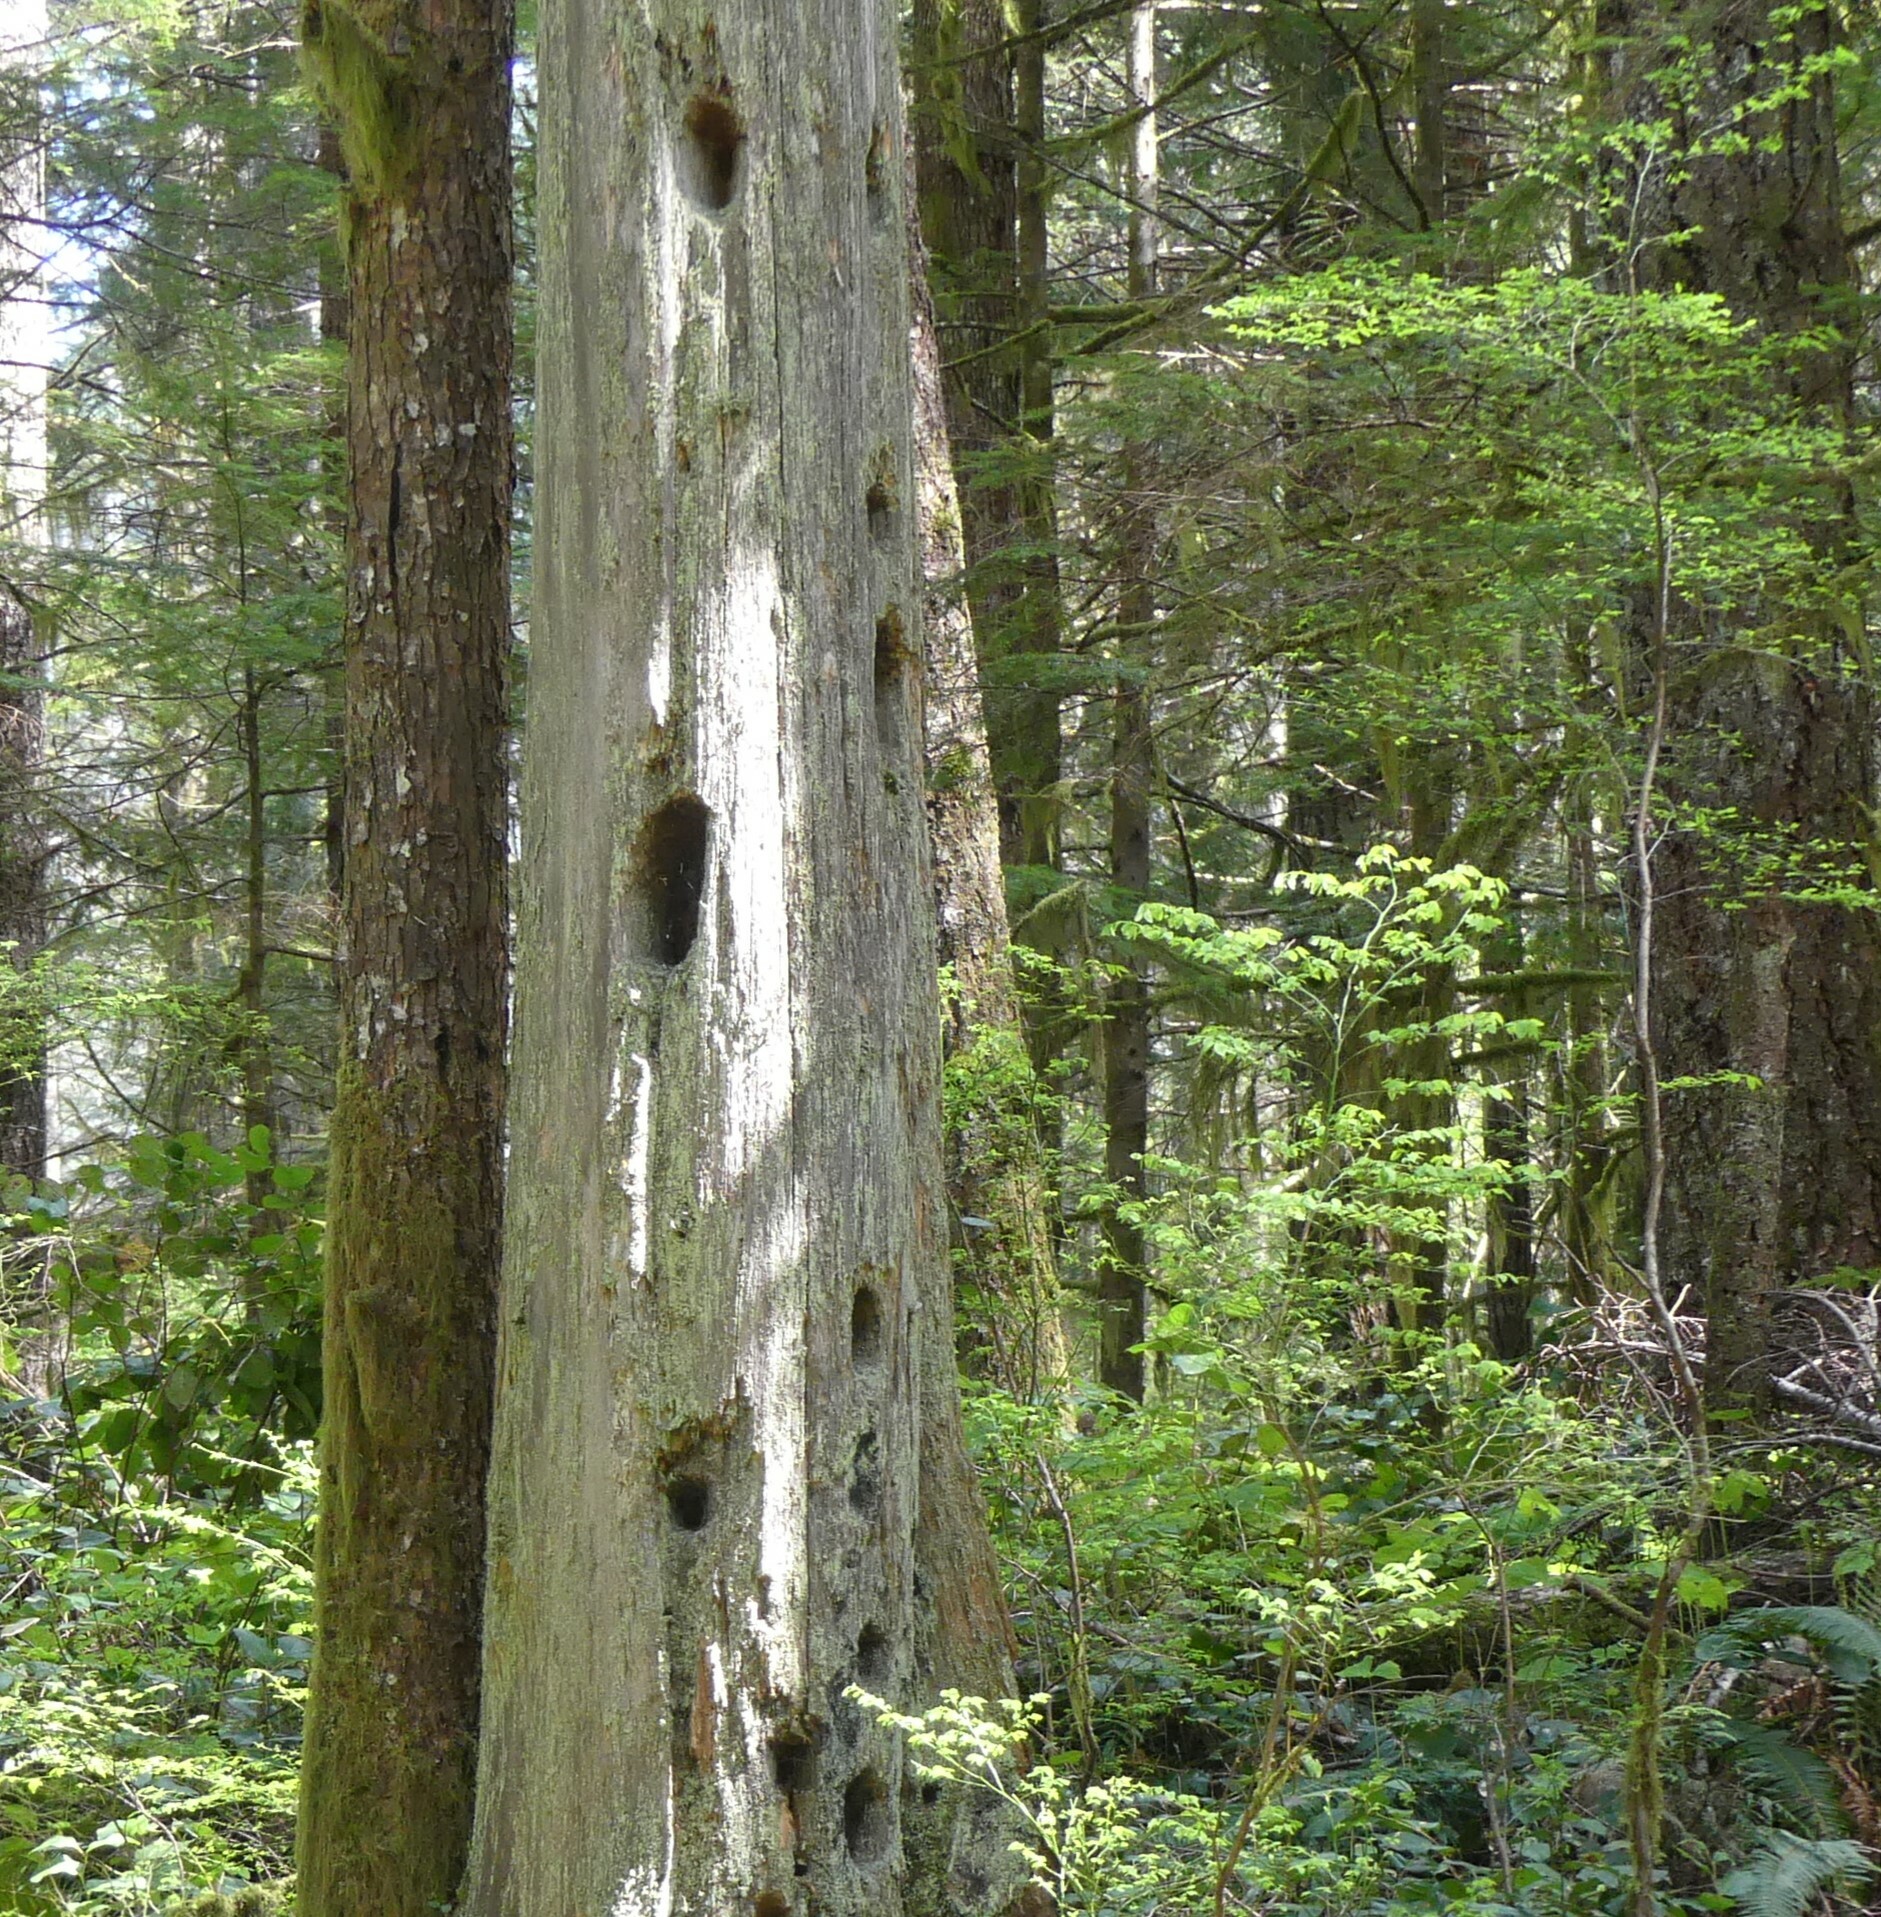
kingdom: Animalia
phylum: Chordata
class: Aves
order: Piciformes
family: Picidae
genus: Dryocopus
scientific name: Dryocopus pileatus
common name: Pileated woodpecker
